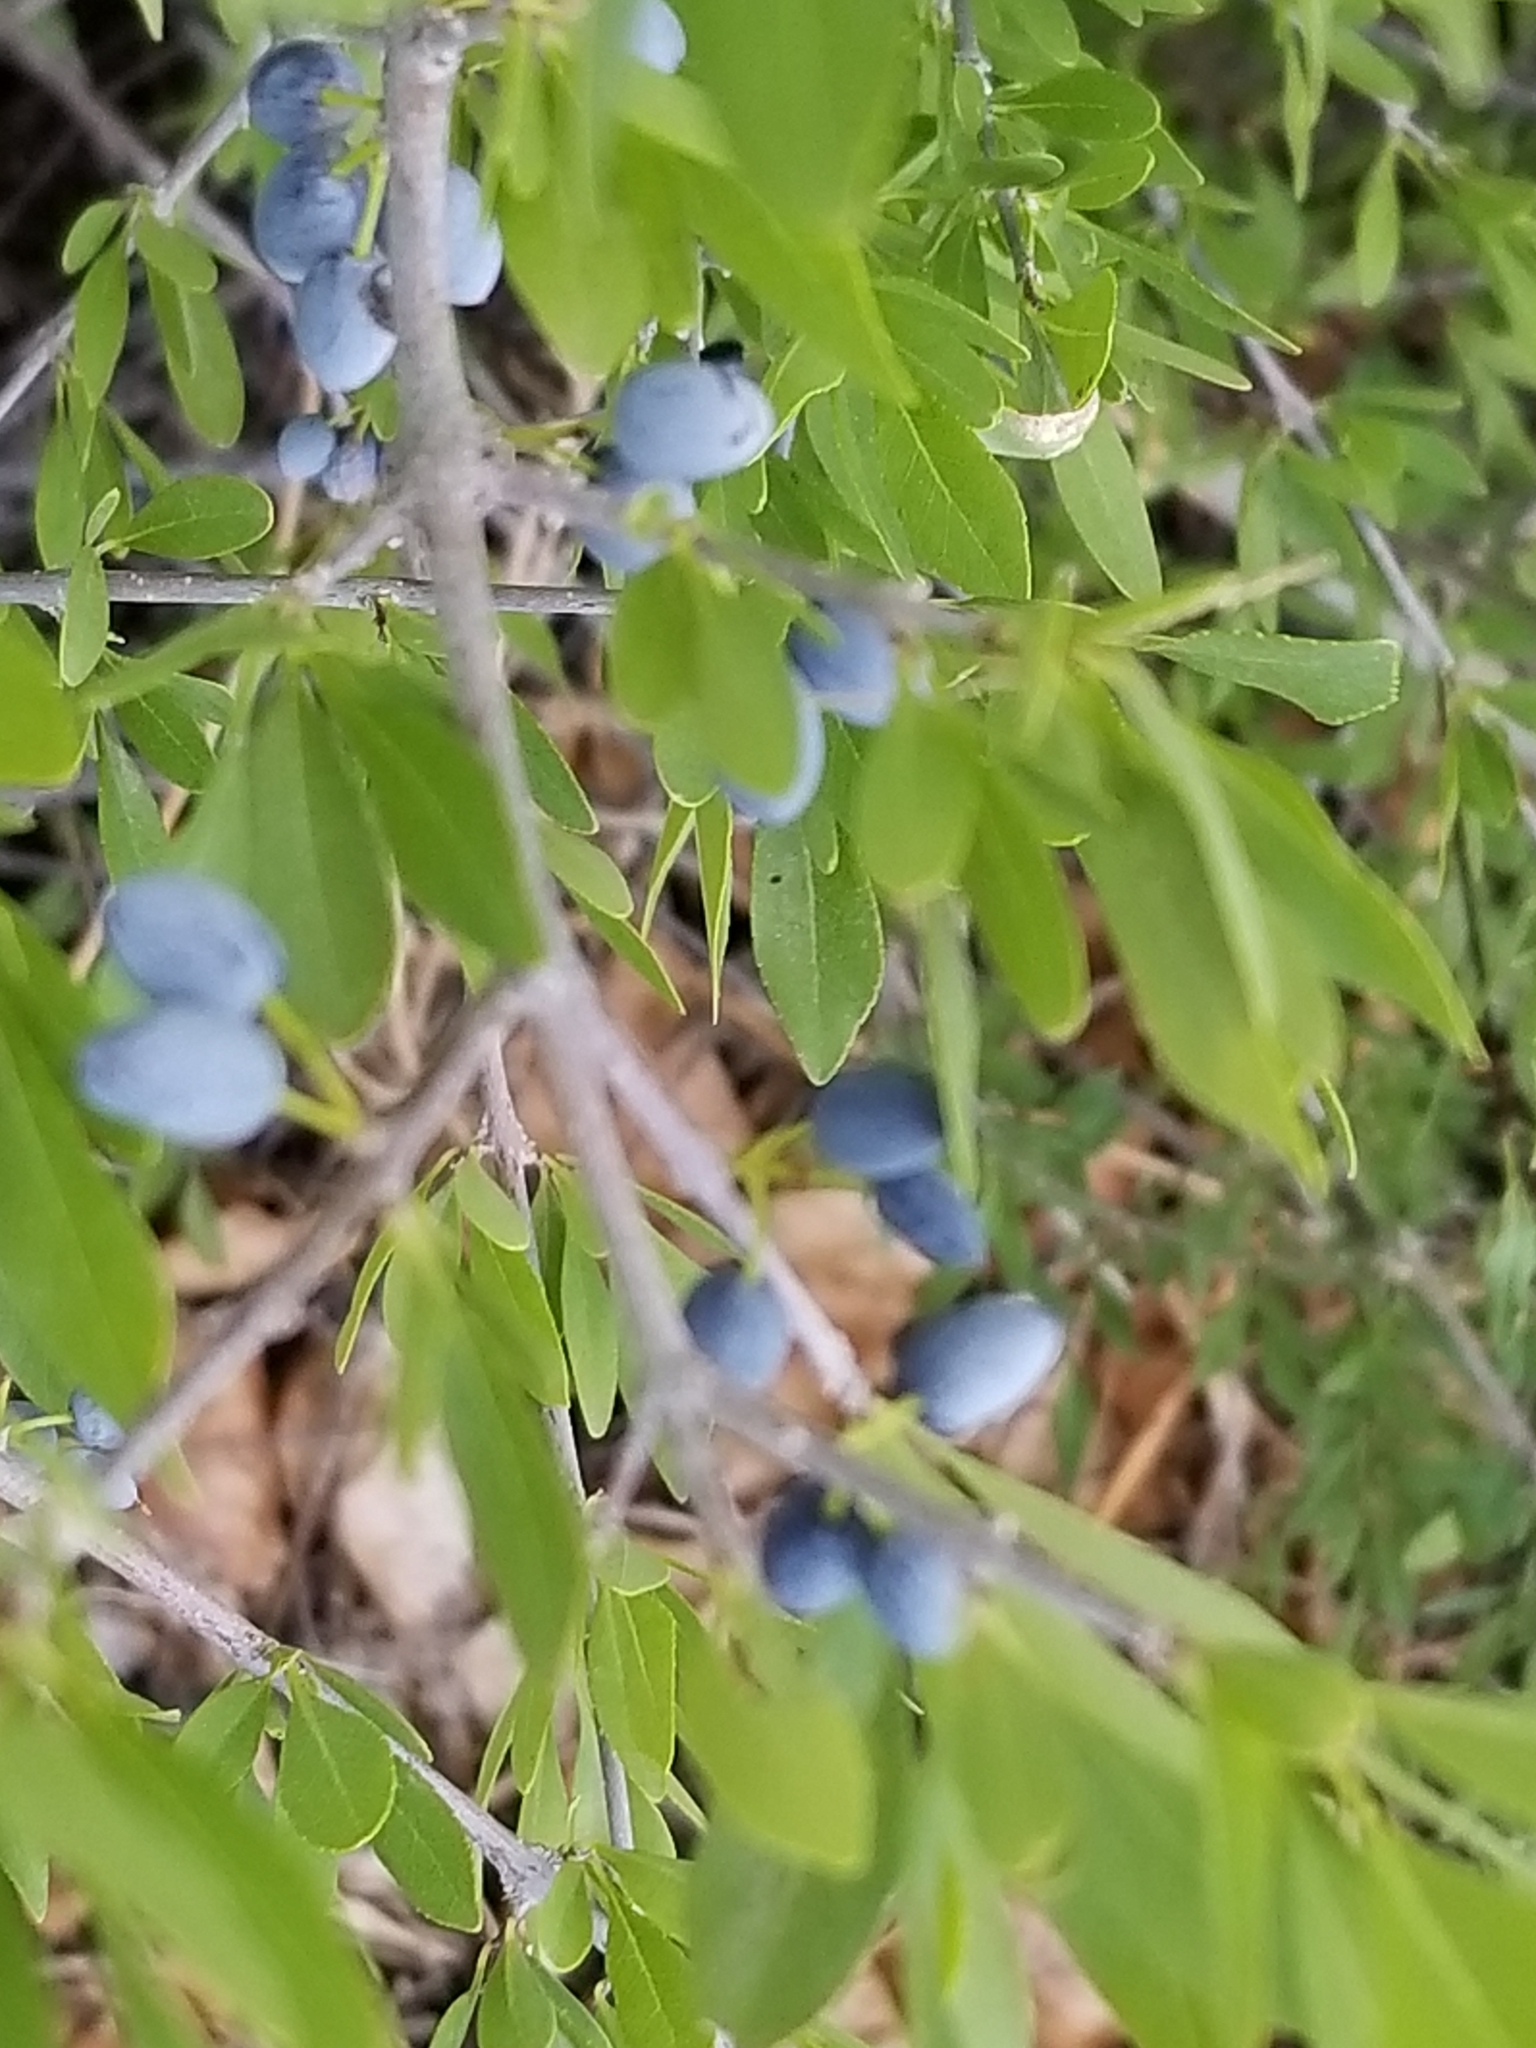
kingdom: Plantae
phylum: Tracheophyta
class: Magnoliopsida
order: Lamiales
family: Oleaceae
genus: Forestiera
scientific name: Forestiera pubescens
